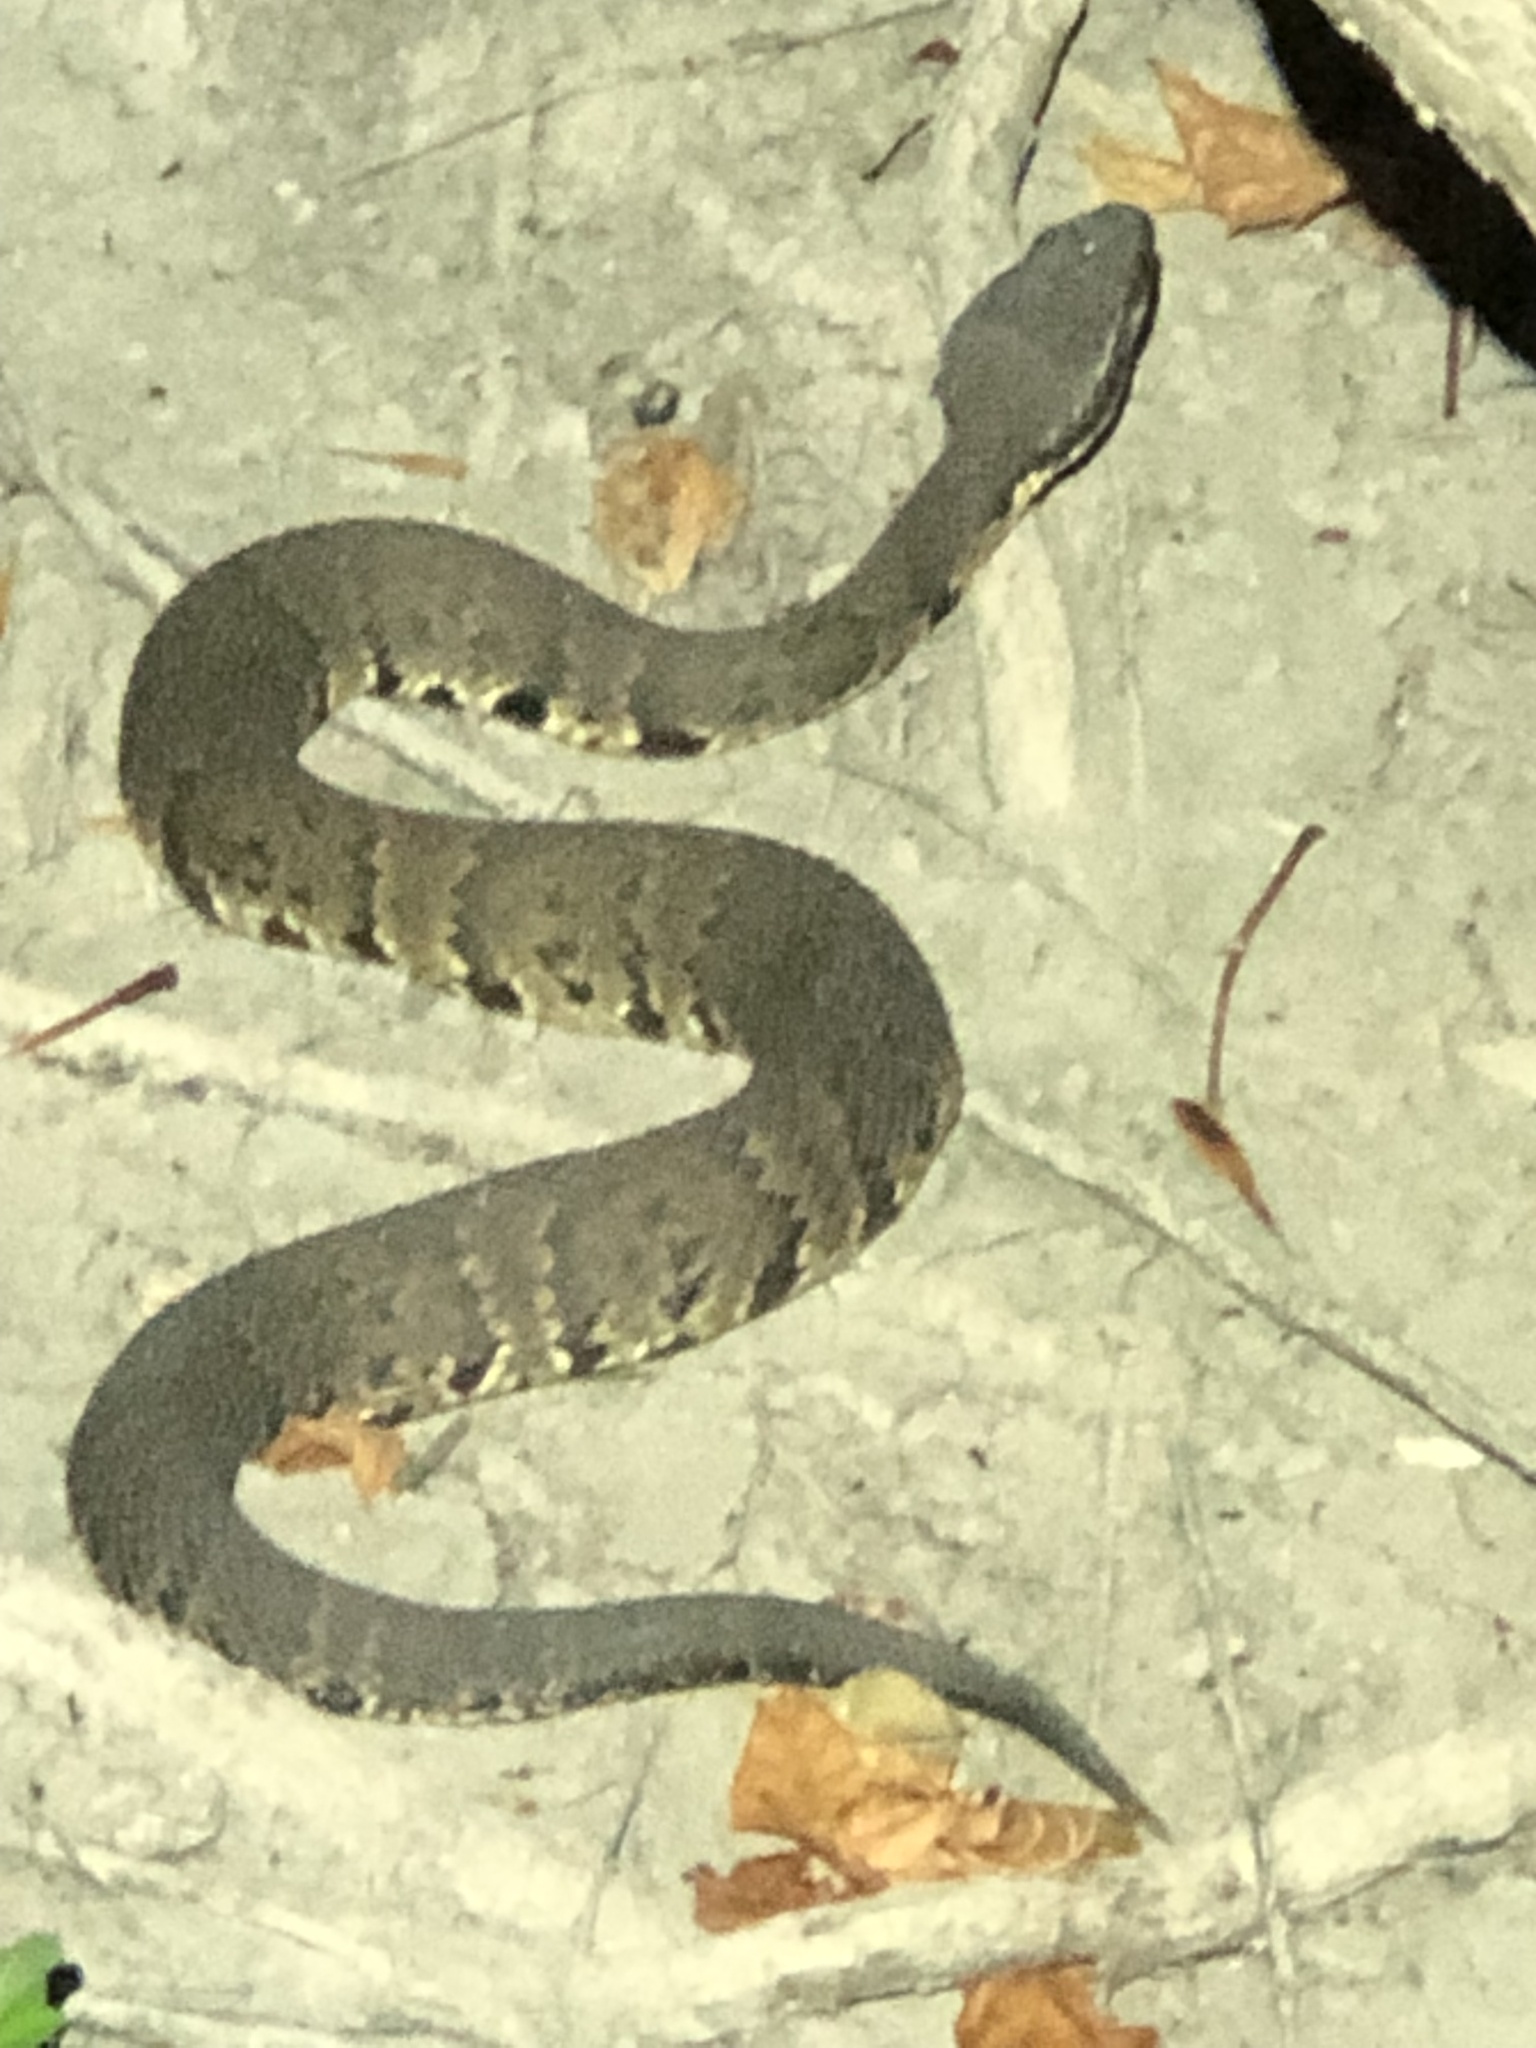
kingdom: Animalia
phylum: Chordata
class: Squamata
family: Viperidae
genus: Agkistrodon
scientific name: Agkistrodon piscivorus
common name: Cottonmouth
